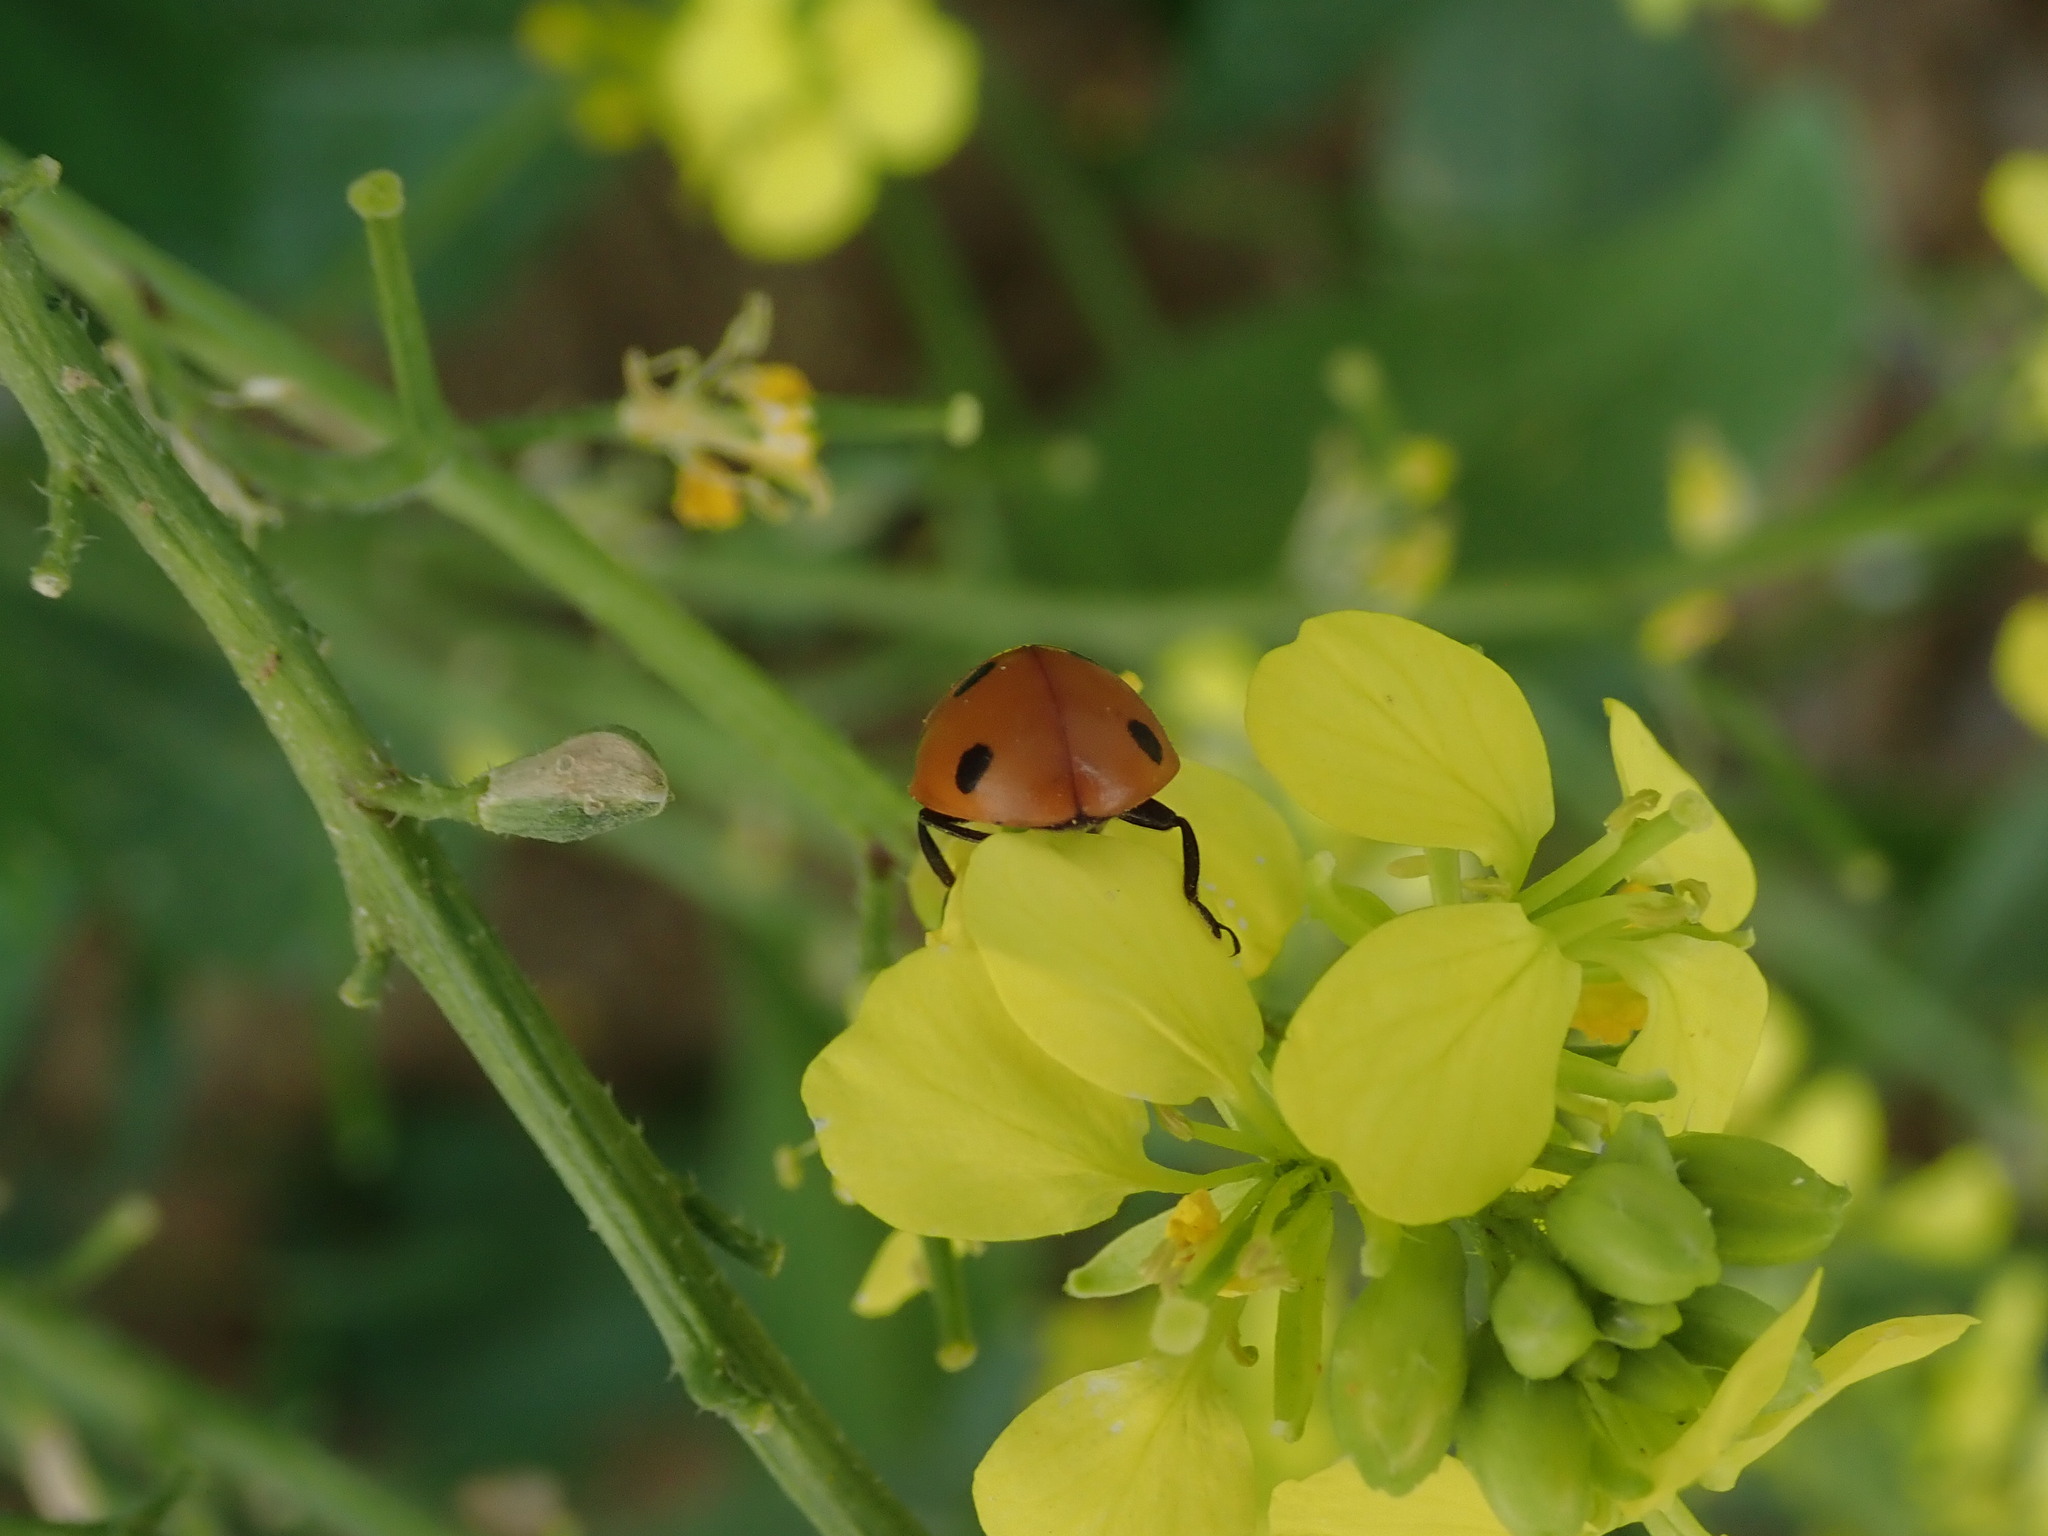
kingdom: Animalia
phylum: Arthropoda
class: Insecta
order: Coleoptera
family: Coccinellidae
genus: Coccinella
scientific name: Coccinella septempunctata
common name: Sevenspotted lady beetle
